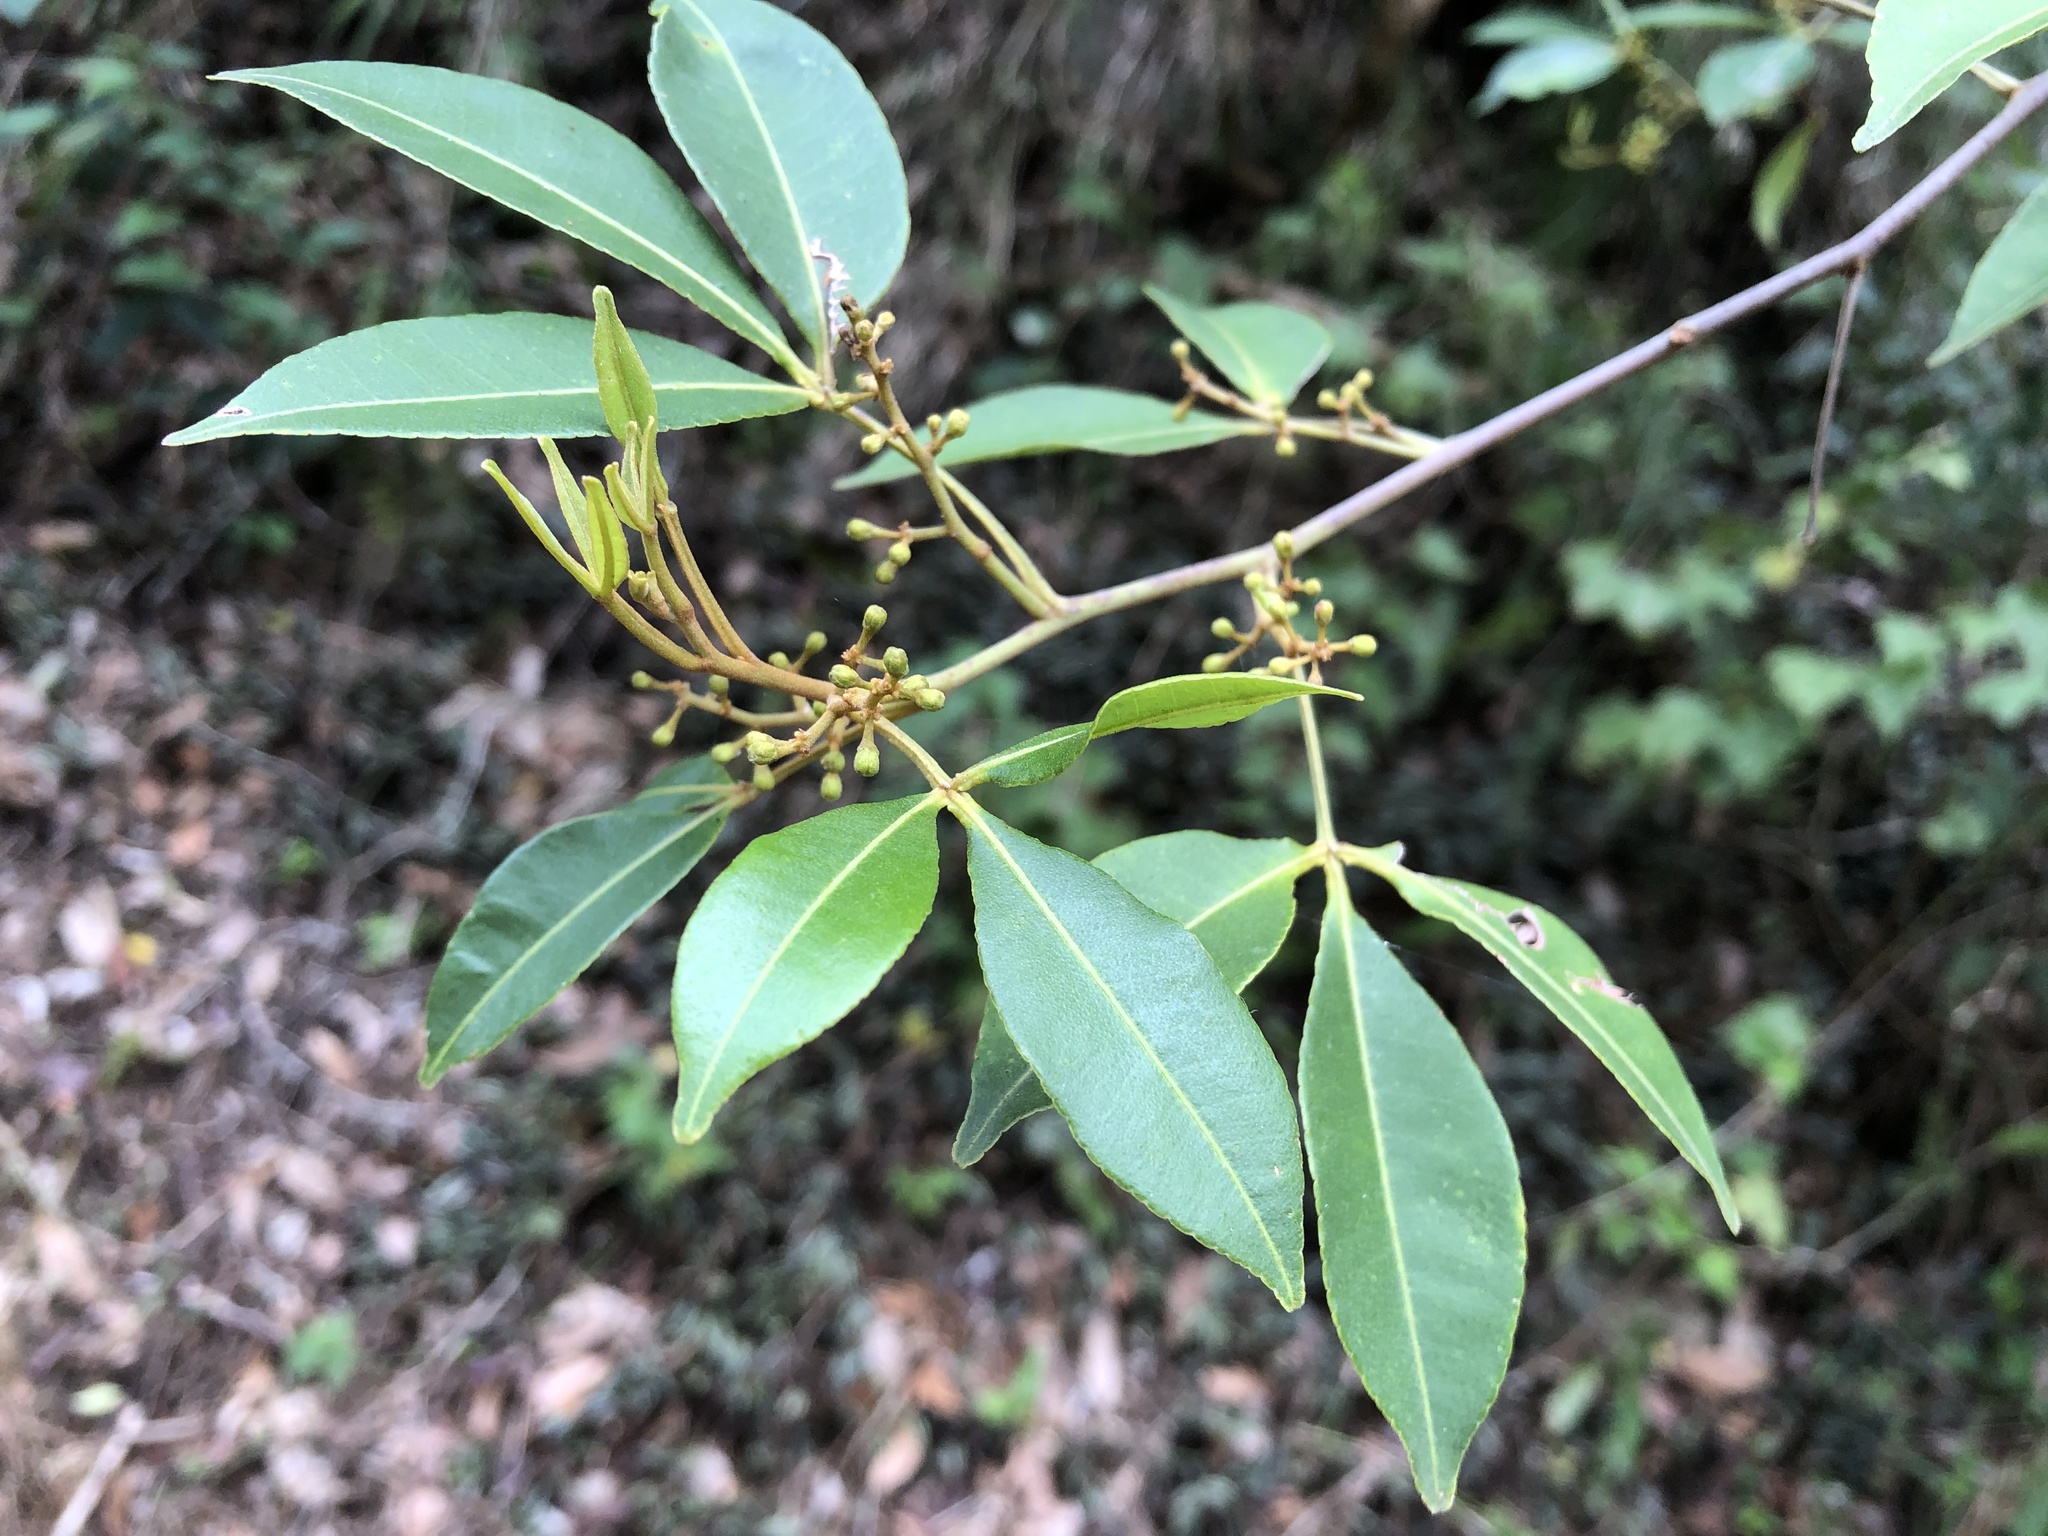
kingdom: Plantae
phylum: Tracheophyta
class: Magnoliopsida
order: Sapindales
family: Rutaceae
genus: Zanthoxylum
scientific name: Zanthoxylum asiaticum
